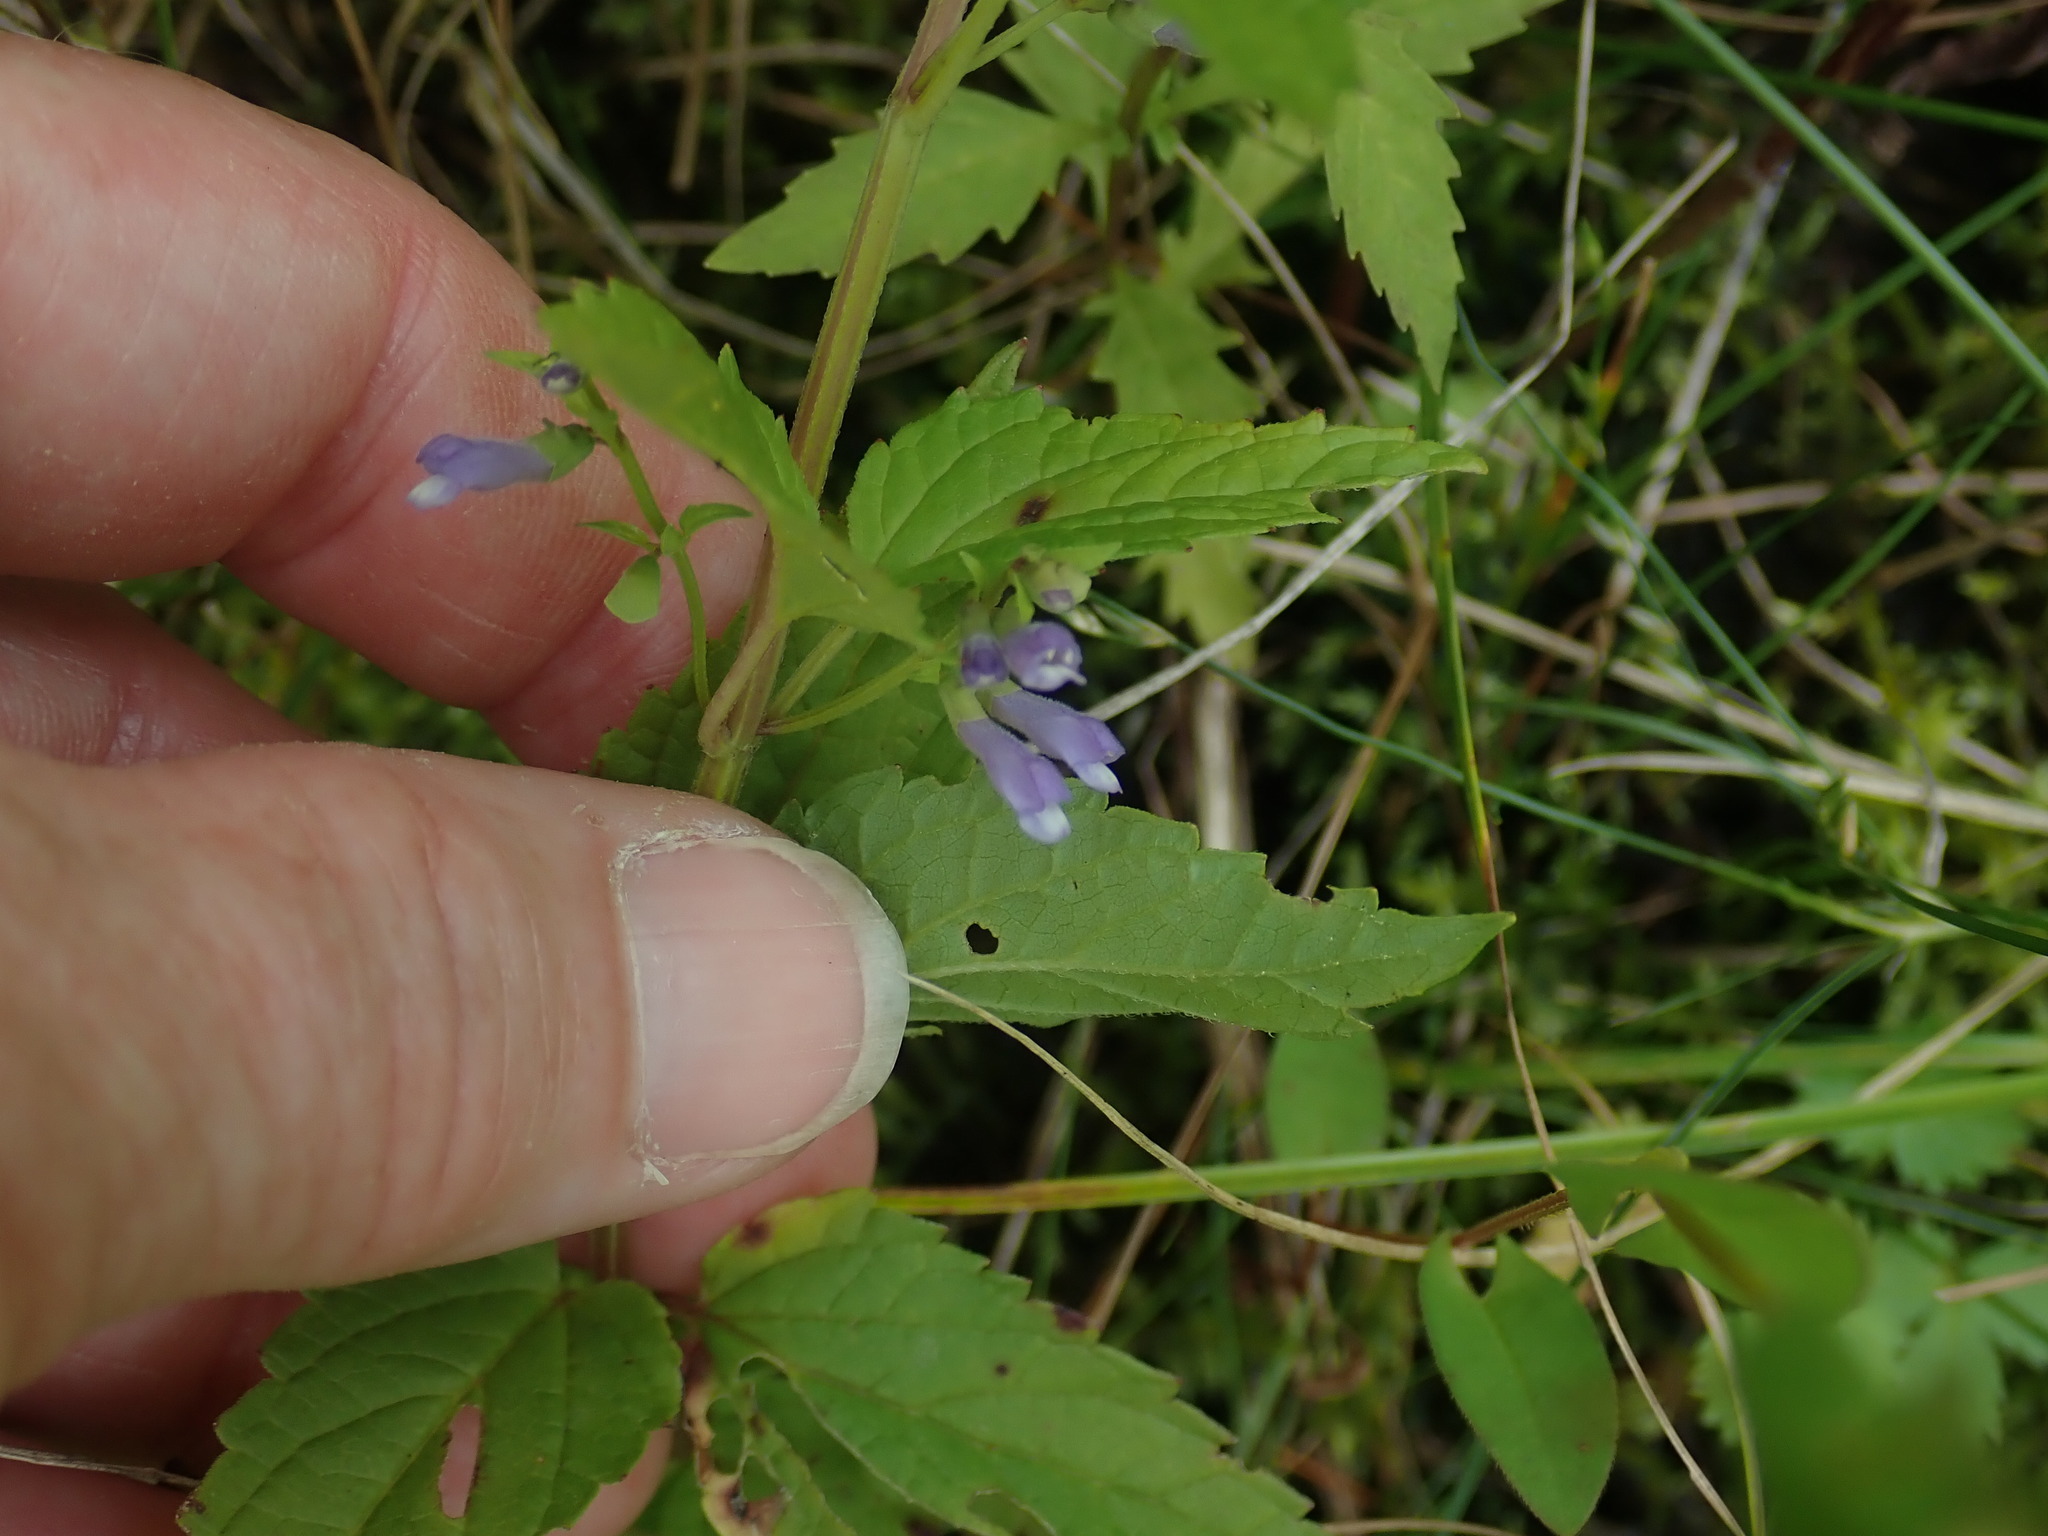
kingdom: Plantae
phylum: Tracheophyta
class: Magnoliopsida
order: Lamiales
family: Lamiaceae
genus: Scutellaria
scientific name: Scutellaria lateriflora
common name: Blue skullcap
